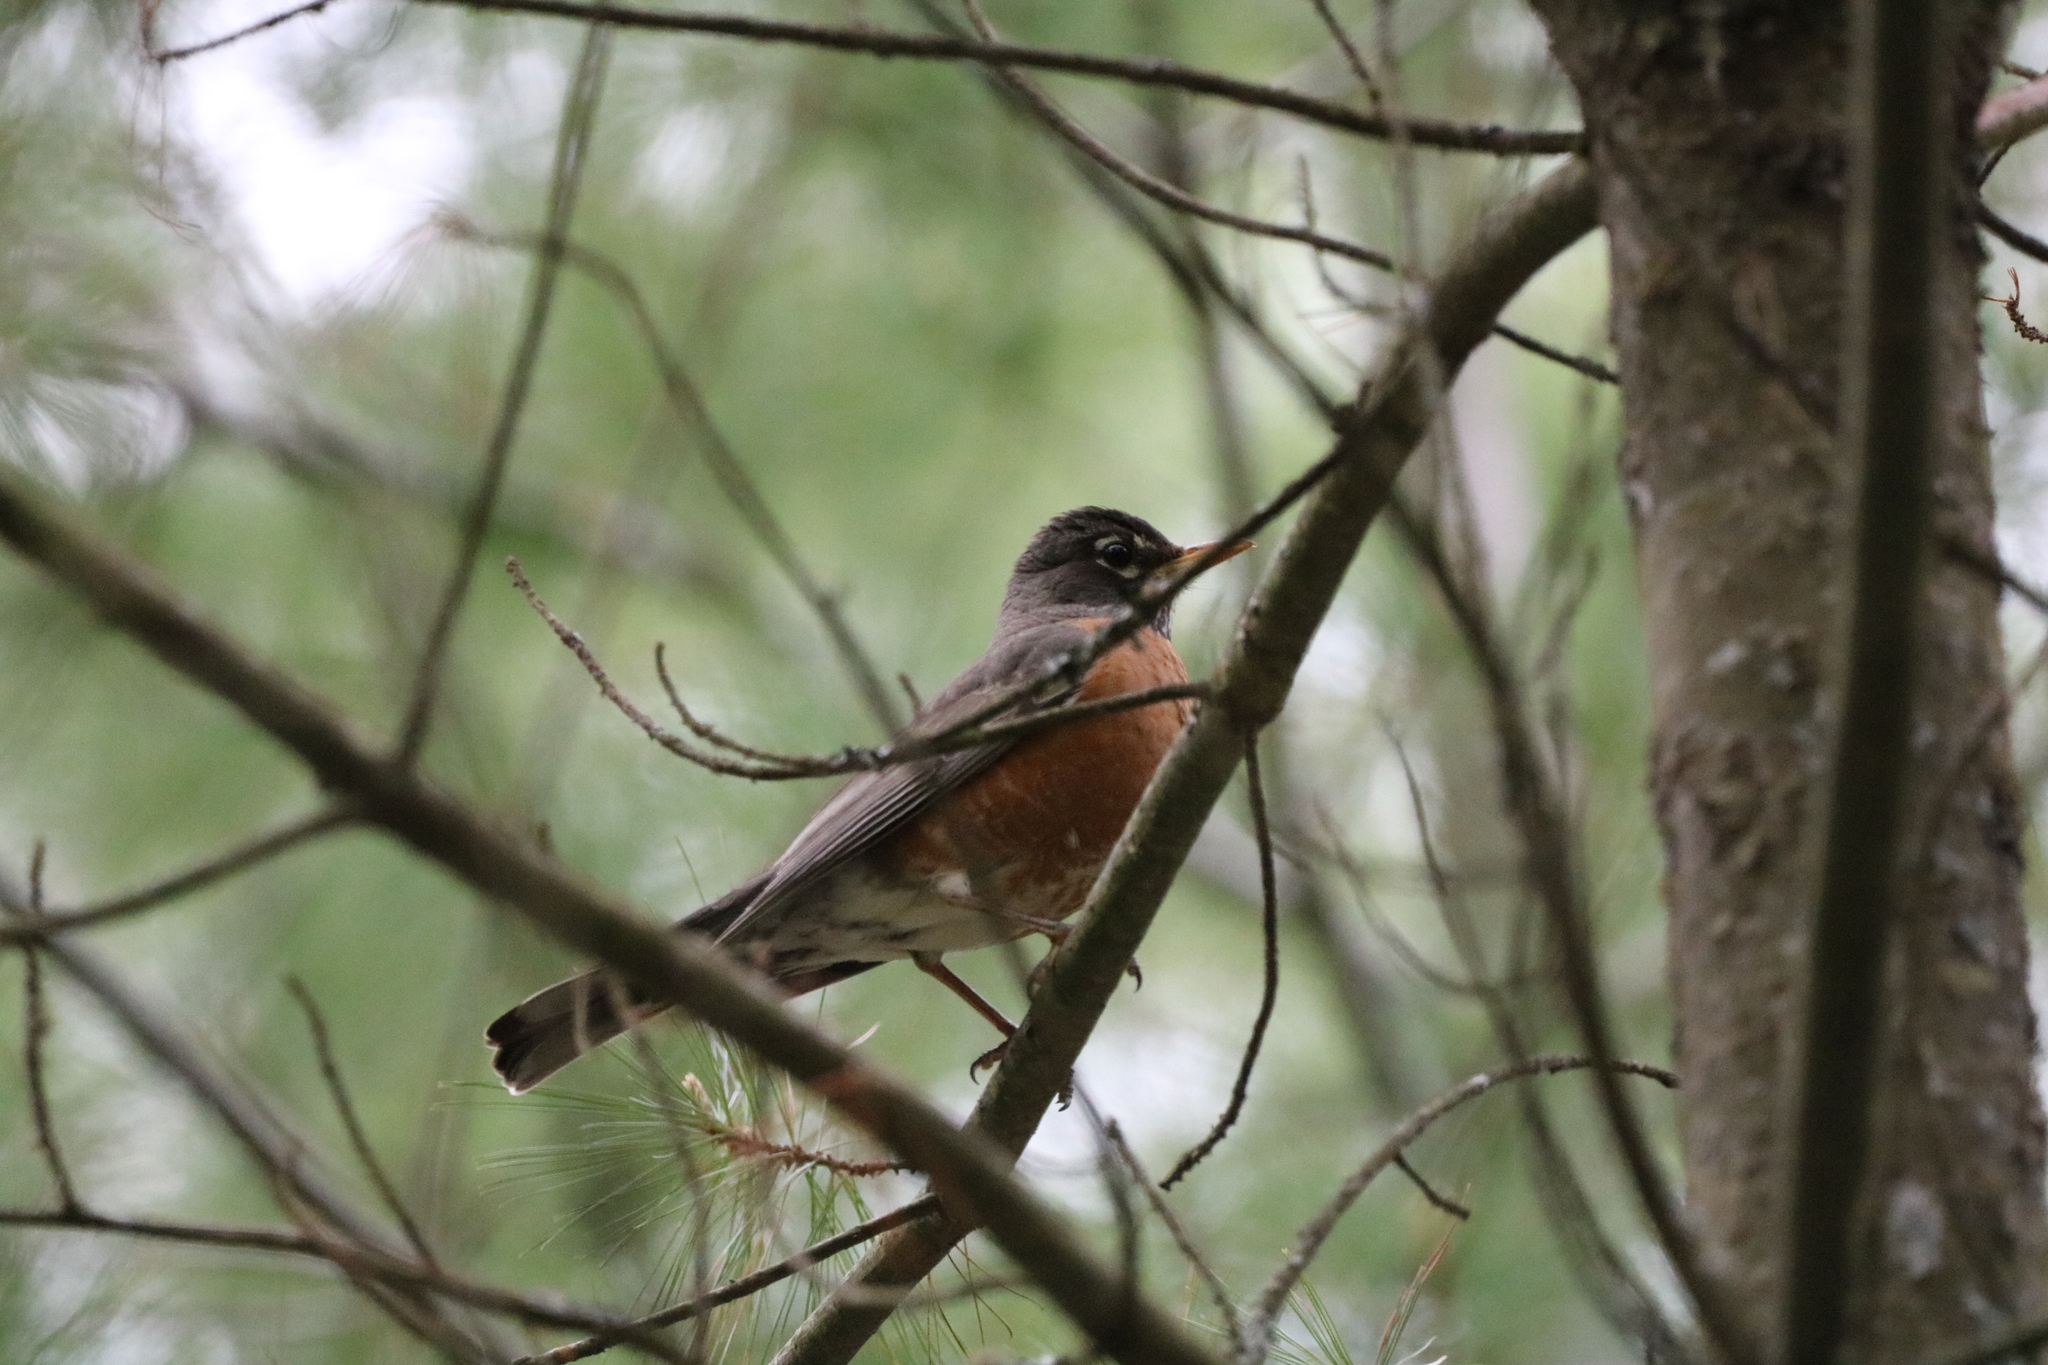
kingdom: Animalia
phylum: Chordata
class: Aves
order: Passeriformes
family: Turdidae
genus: Turdus
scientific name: Turdus migratorius
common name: American robin
